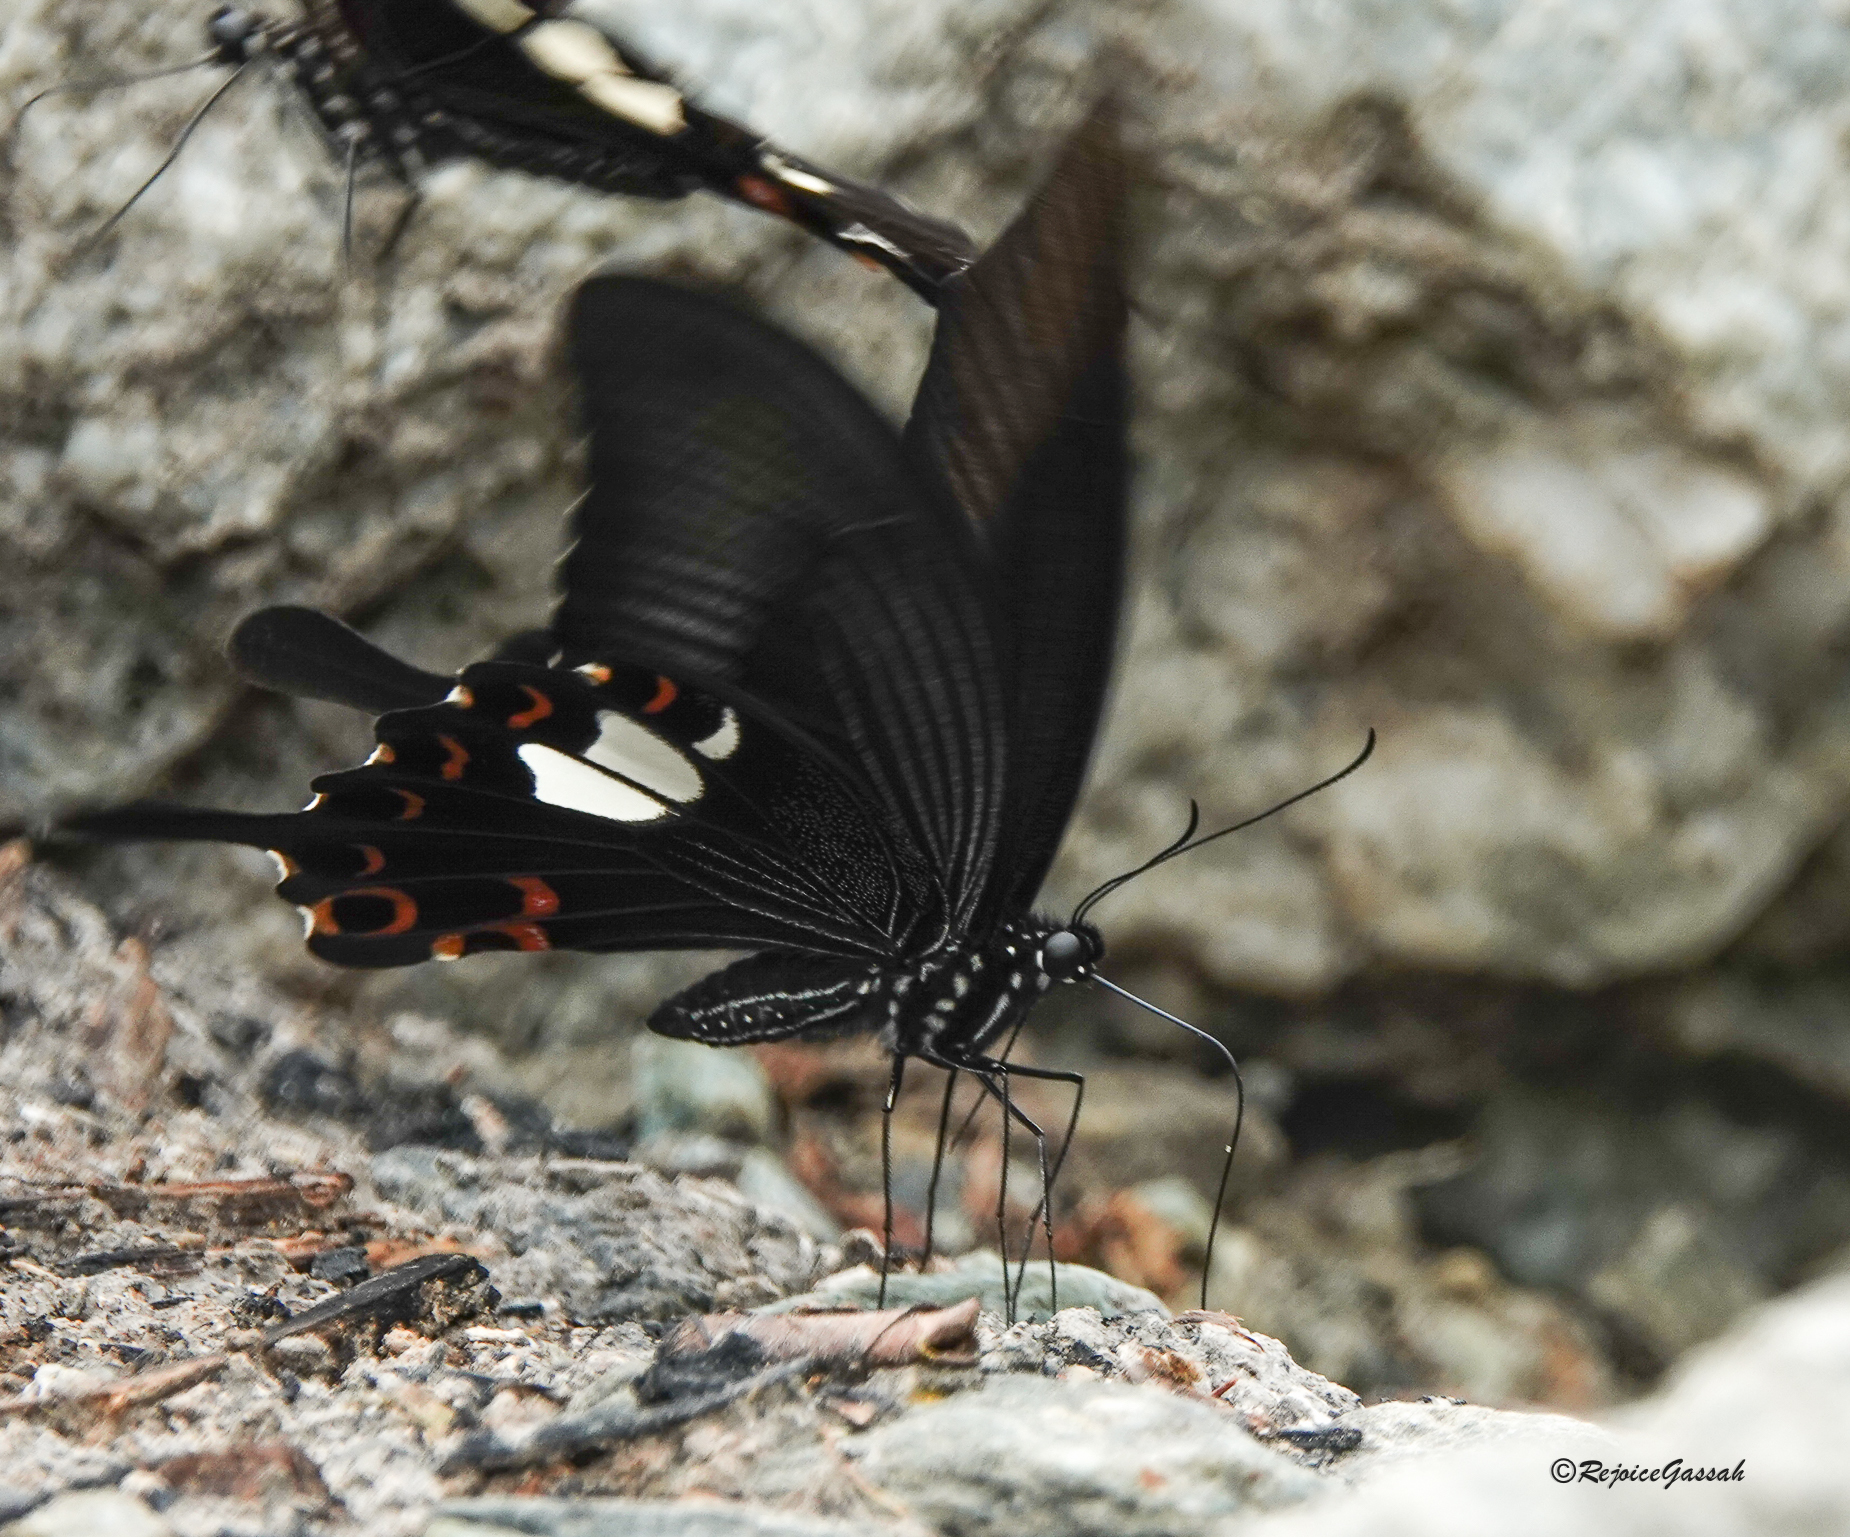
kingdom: Animalia
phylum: Arthropoda
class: Insecta
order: Lepidoptera
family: Papilionidae
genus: Papilio
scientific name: Papilio helenus
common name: Red helen
